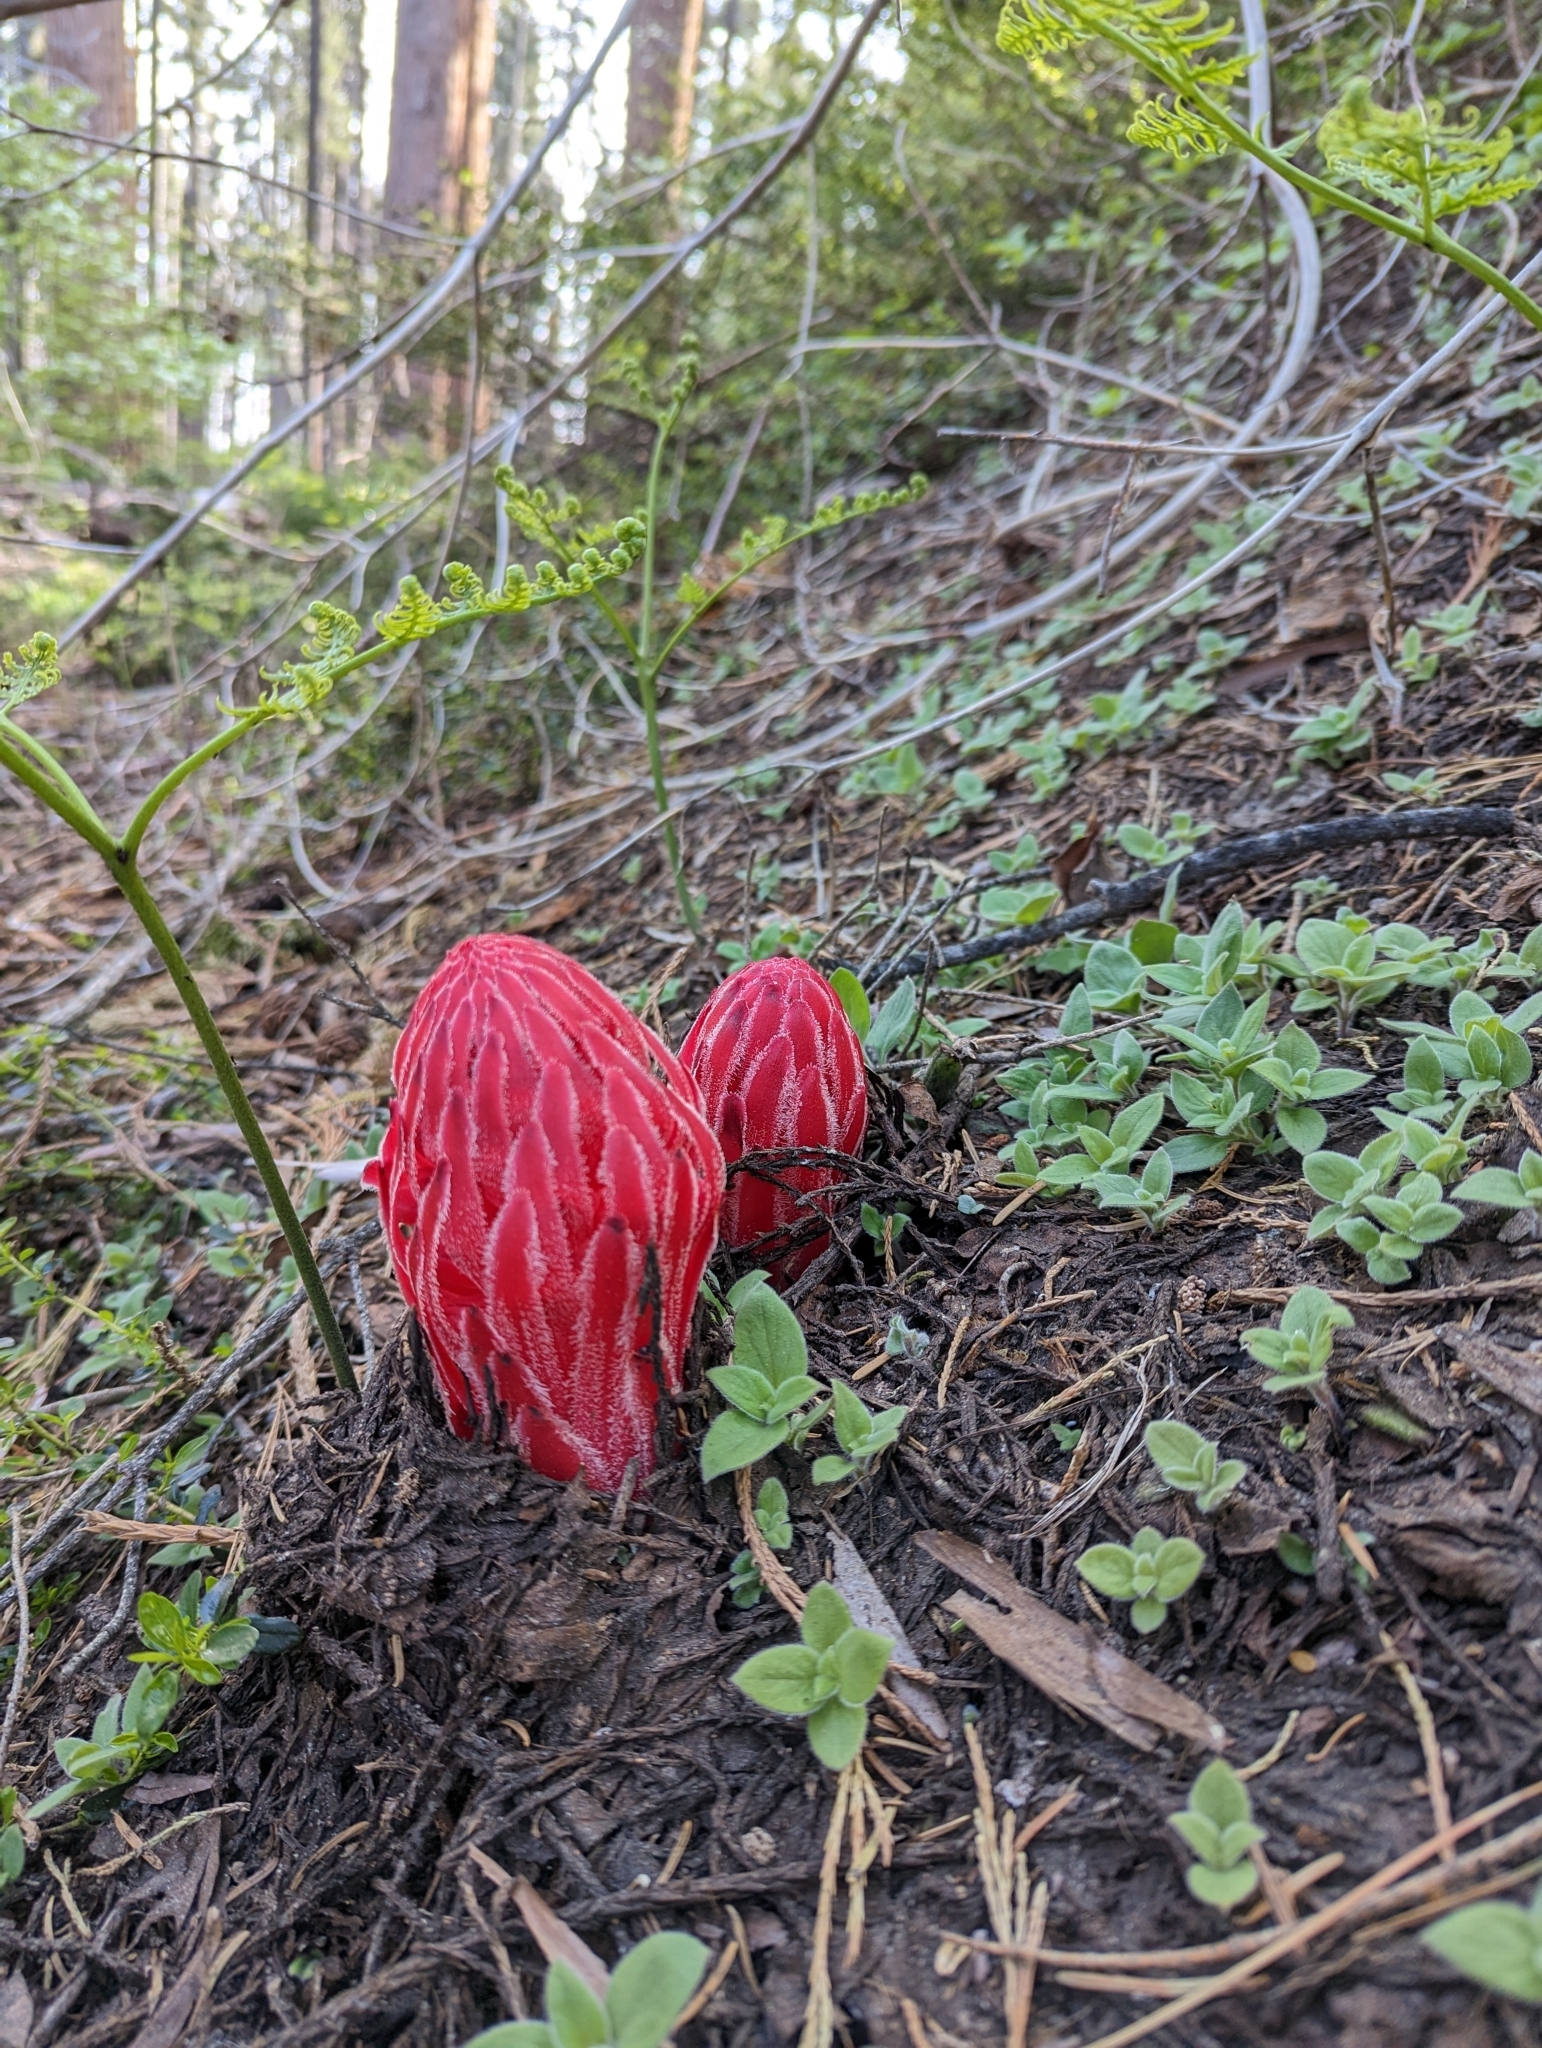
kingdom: Plantae
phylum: Tracheophyta
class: Magnoliopsida
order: Ericales
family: Ericaceae
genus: Sarcodes
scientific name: Sarcodes sanguinea
